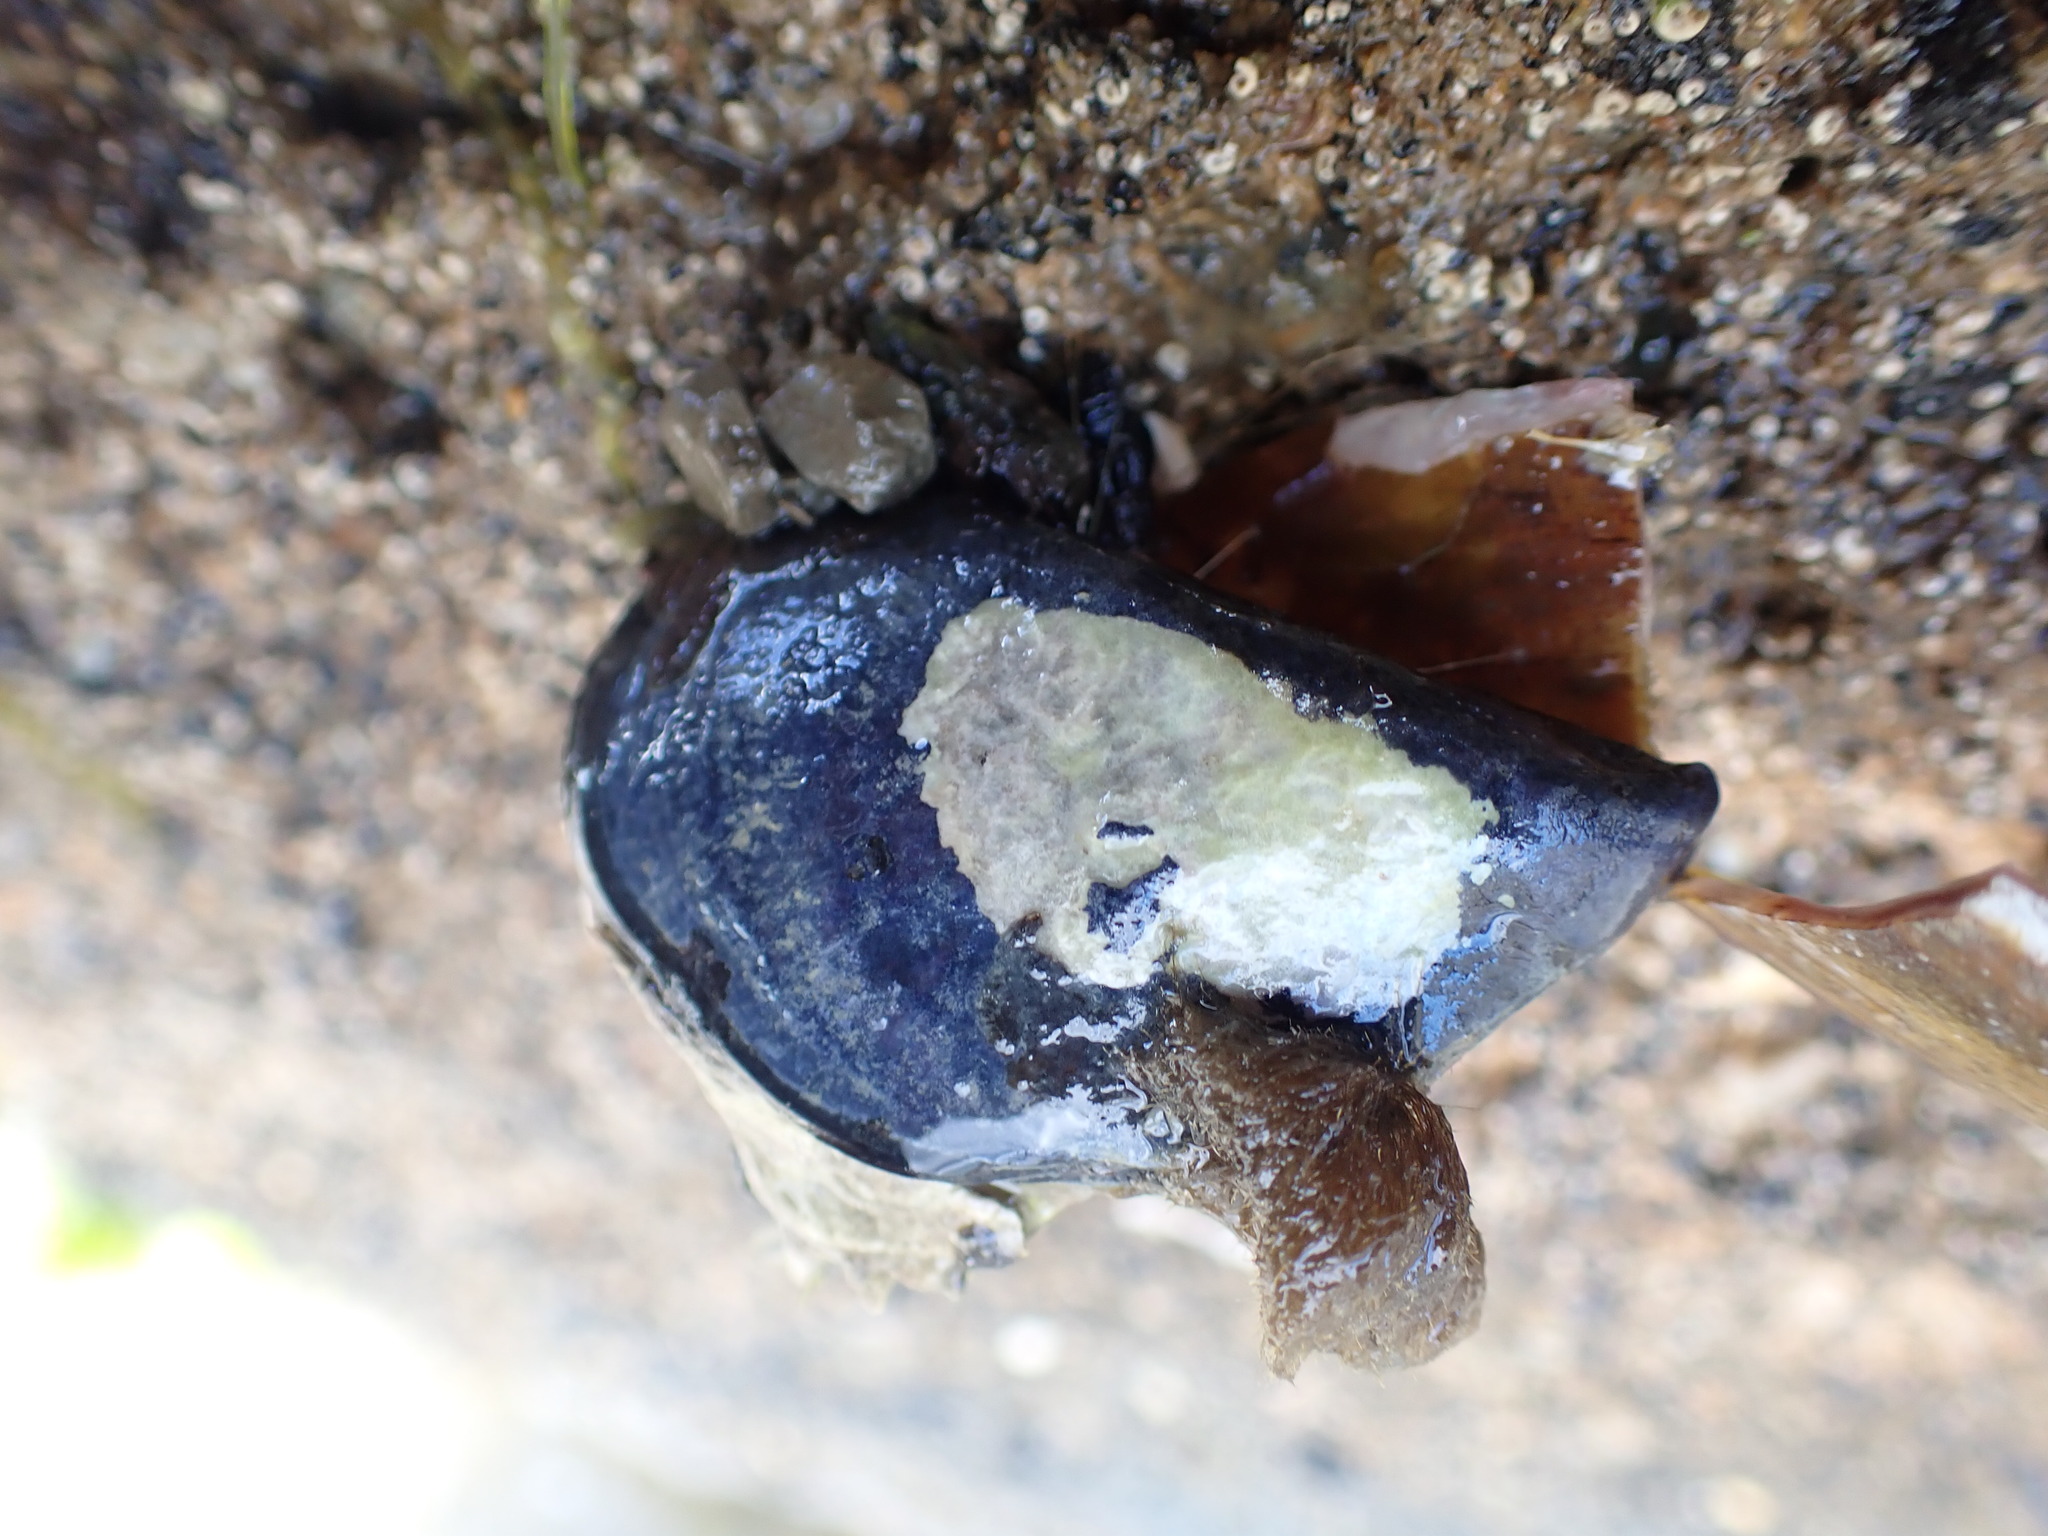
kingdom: Animalia
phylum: Mollusca
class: Bivalvia
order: Mytilida
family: Mytilidae
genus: Mytilus
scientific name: Mytilus planulatus
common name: Australian mussel
